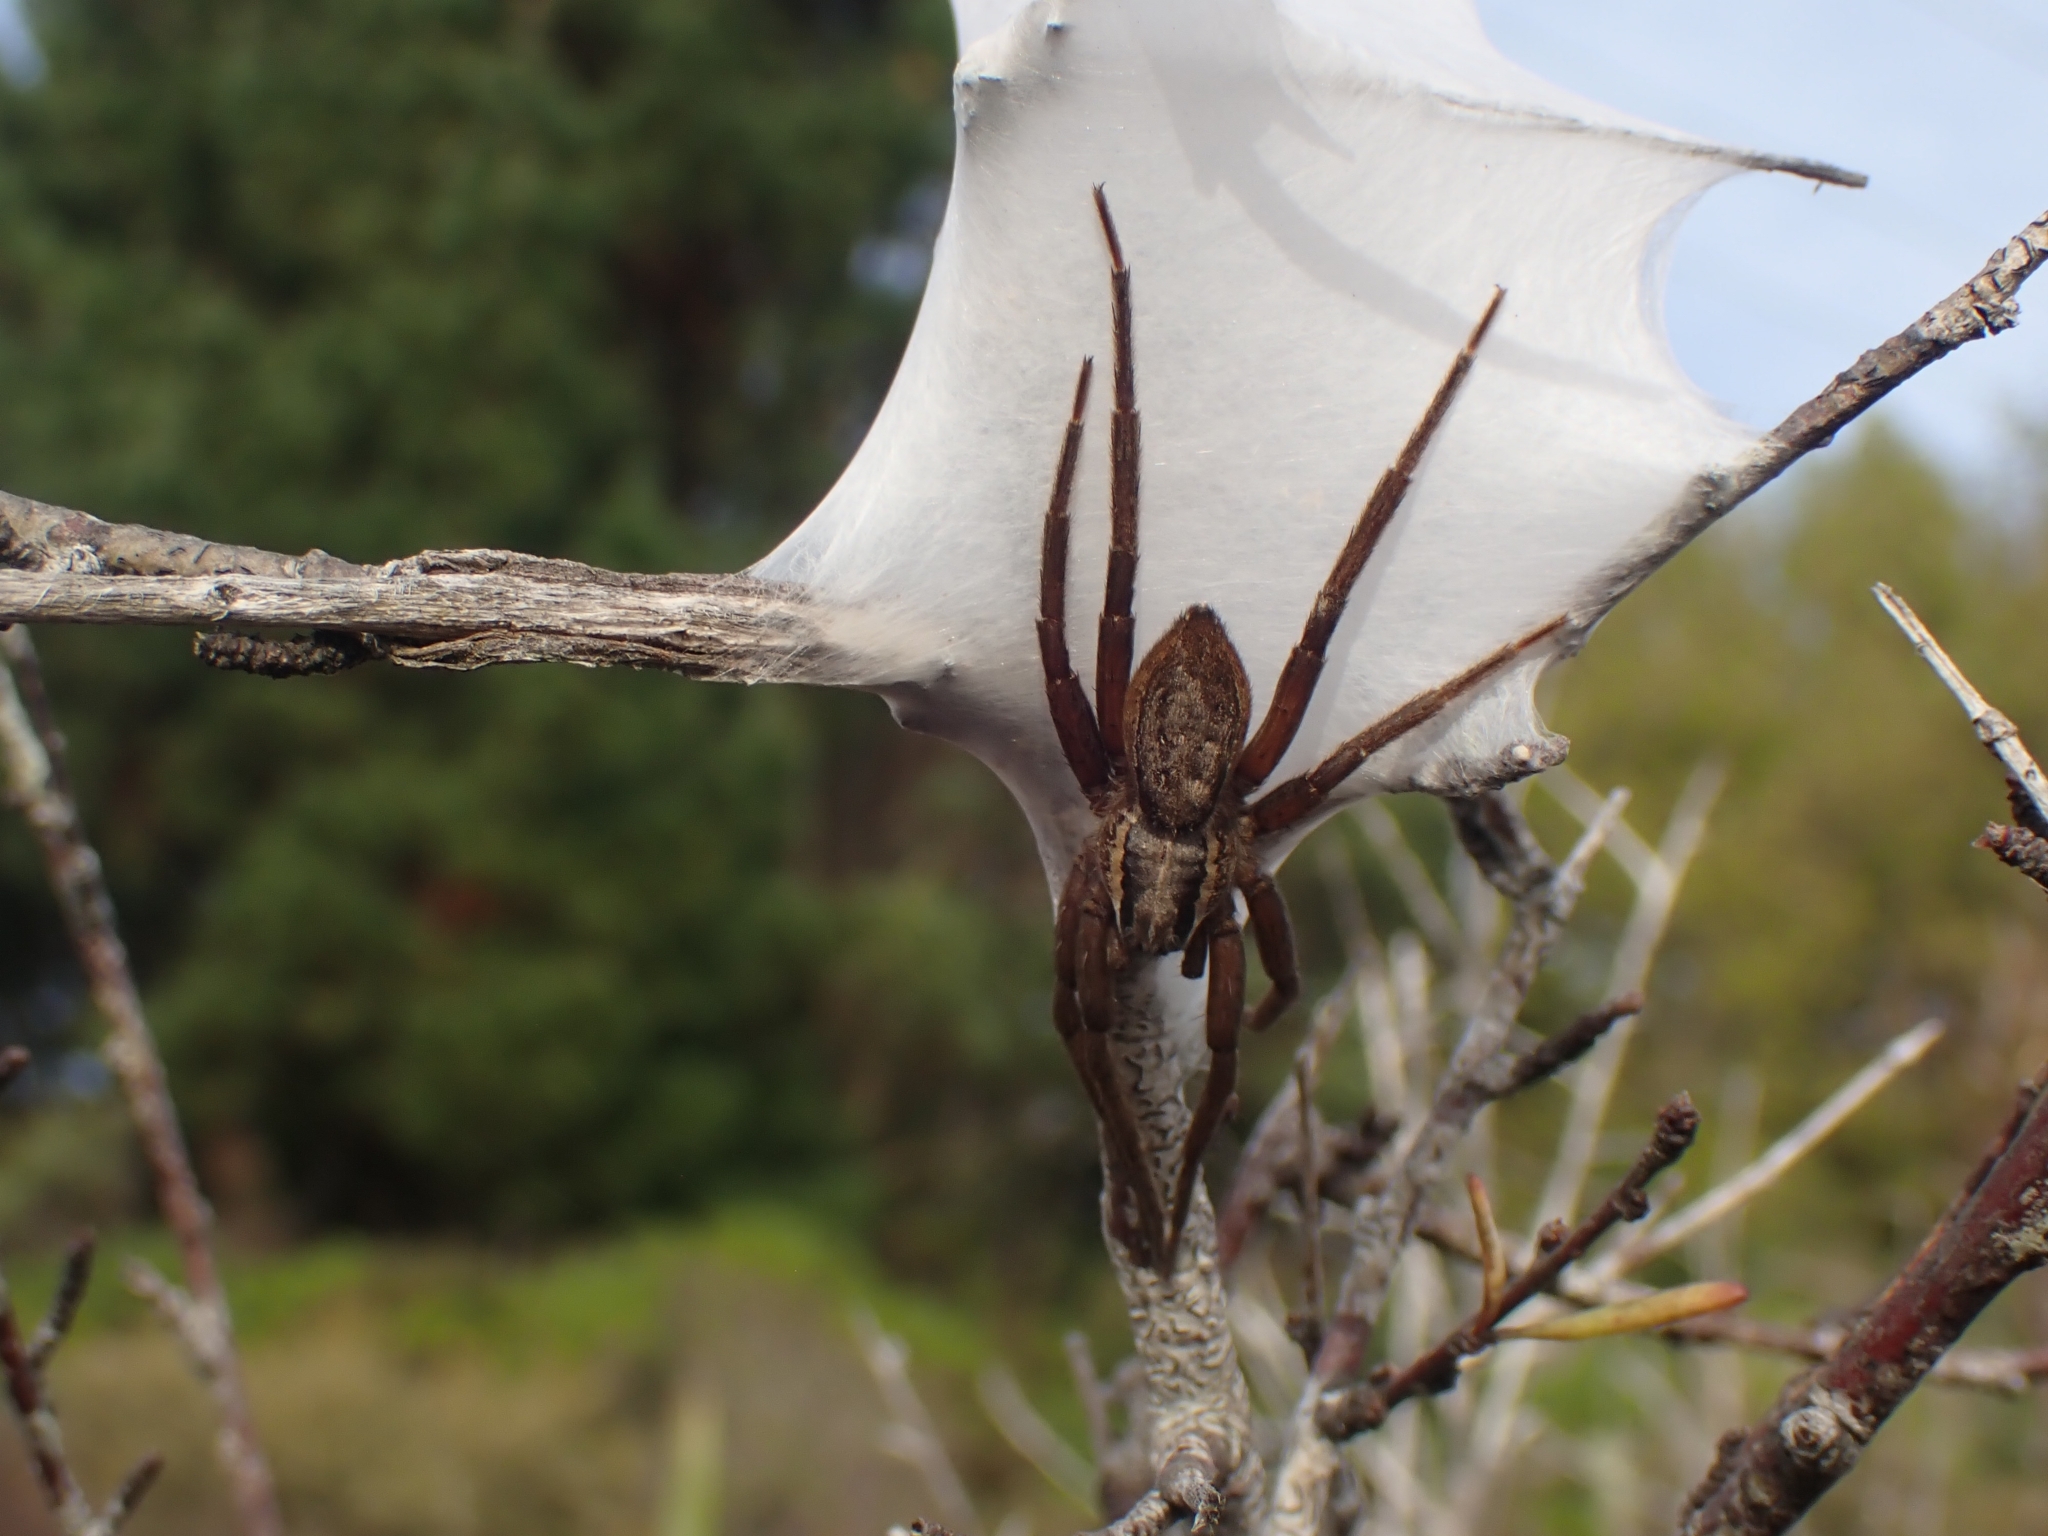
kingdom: Animalia
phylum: Arthropoda
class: Arachnida
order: Araneae
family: Pisauridae
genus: Dolomedes
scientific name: Dolomedes minor
